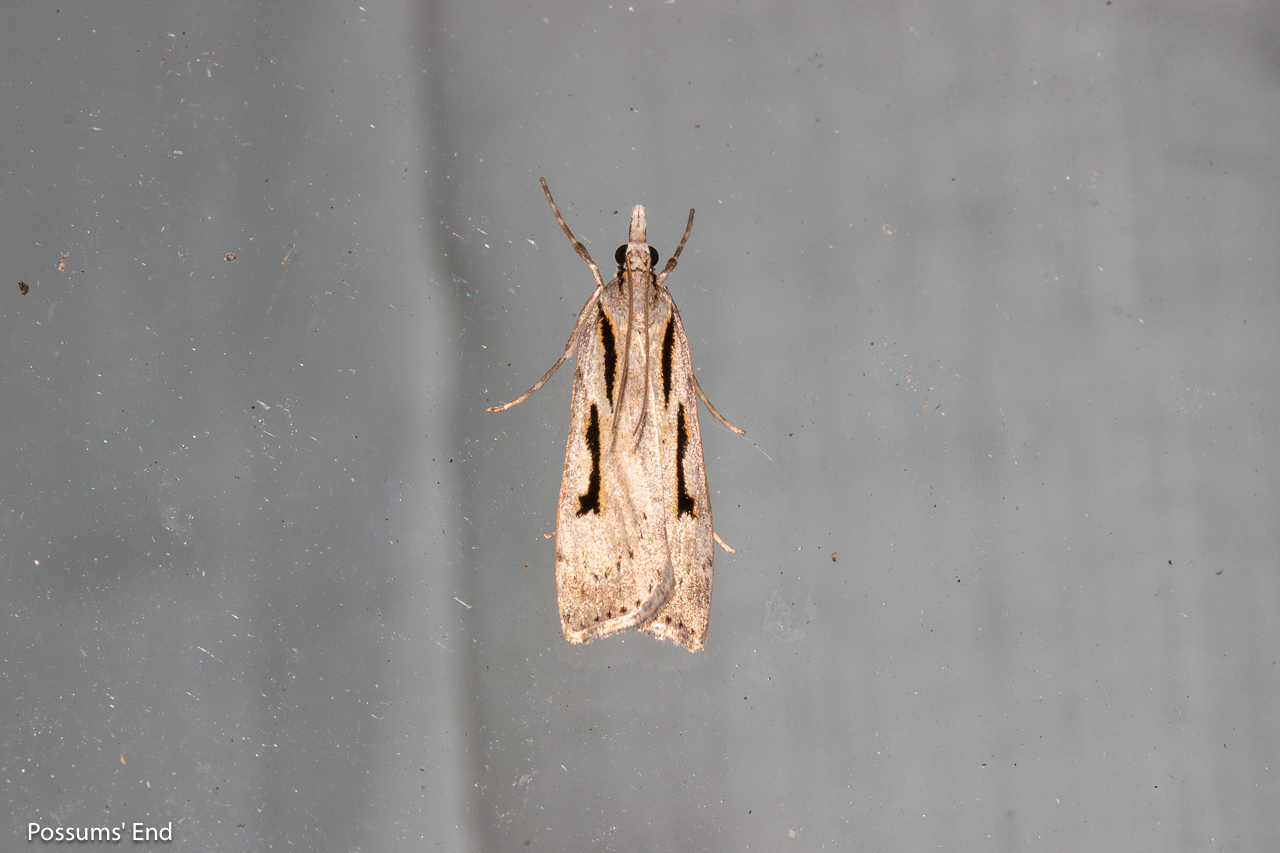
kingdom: Animalia
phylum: Arthropoda
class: Insecta
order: Lepidoptera
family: Crambidae
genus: Scoparia
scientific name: Scoparia rotuellus
